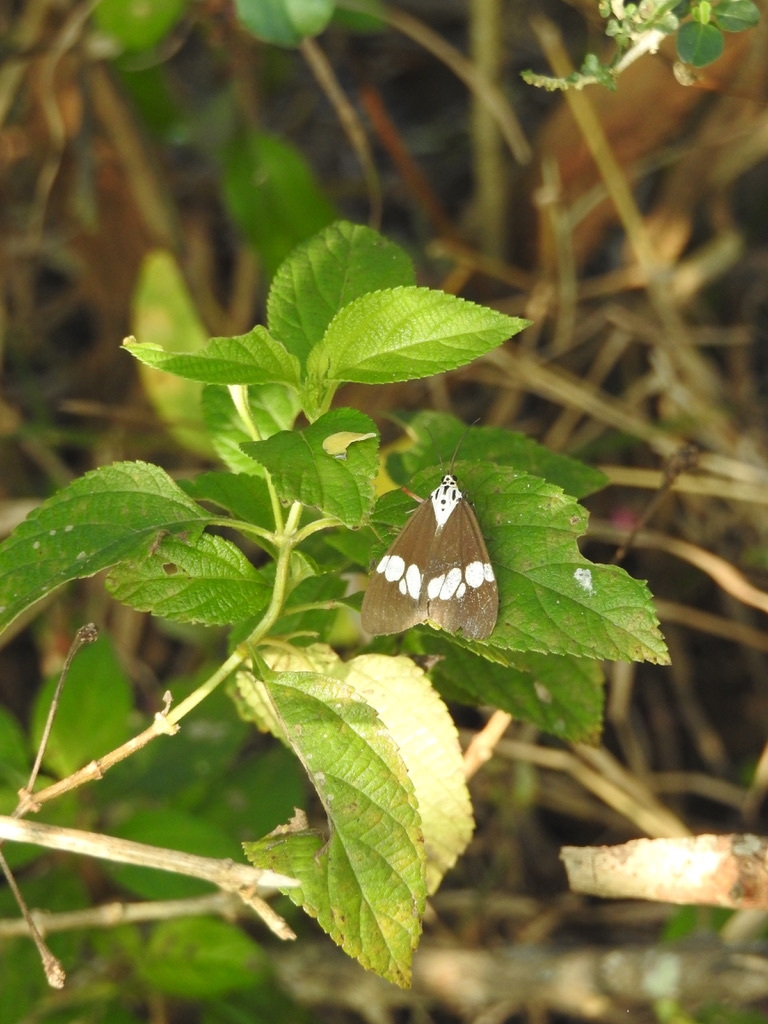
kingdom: Animalia
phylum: Arthropoda
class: Insecta
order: Lepidoptera
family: Erebidae
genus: Nyctemera
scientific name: Nyctemera lacticinia
